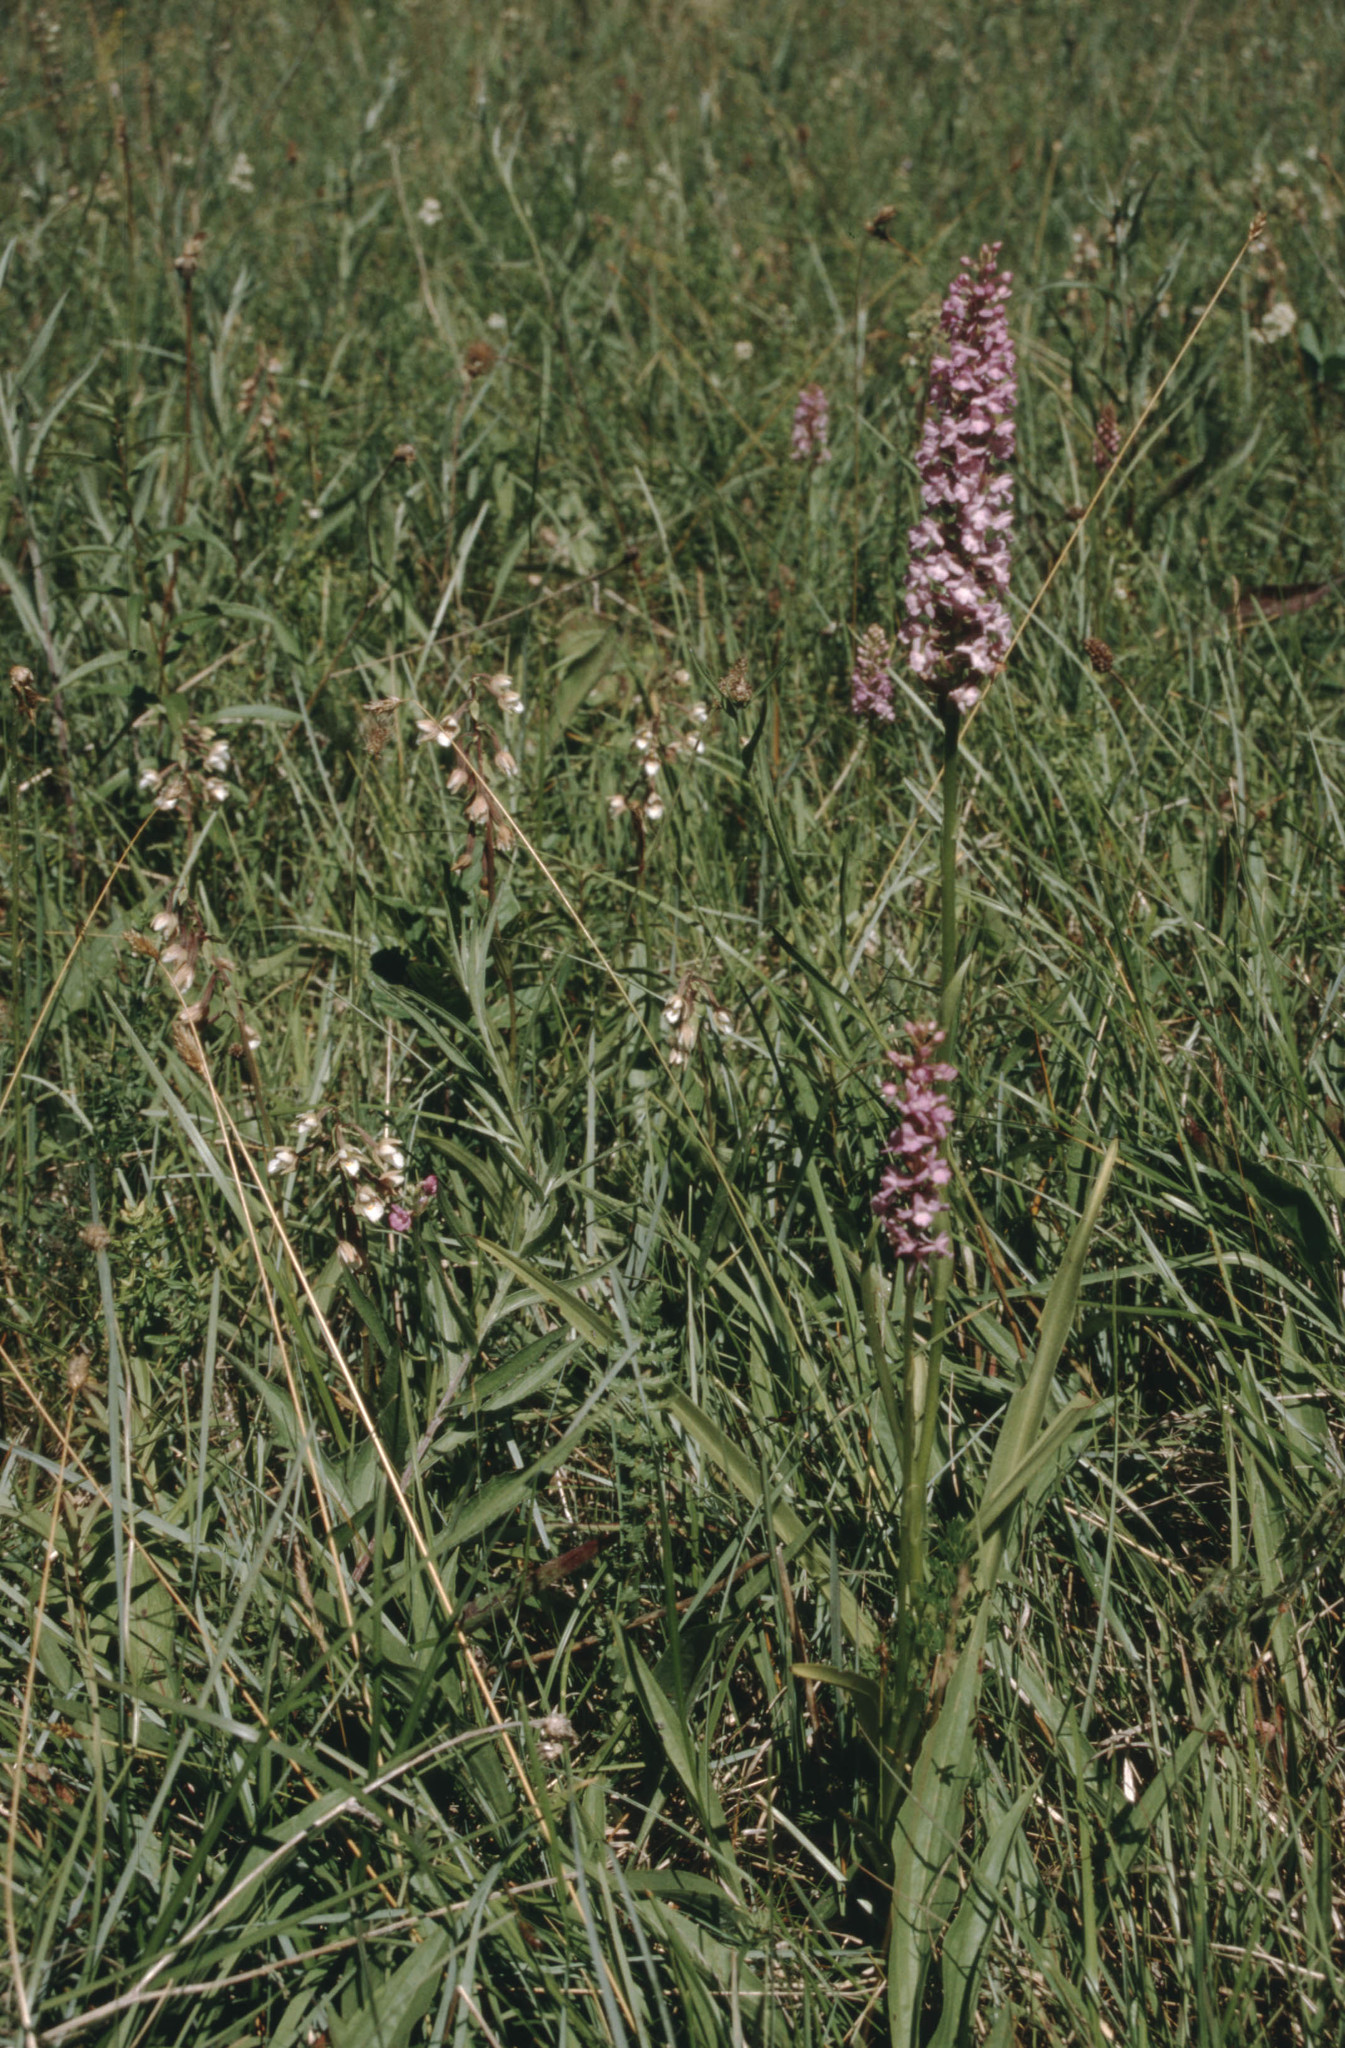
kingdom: Plantae
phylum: Tracheophyta
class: Liliopsida
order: Asparagales
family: Orchidaceae
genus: Gymnadenia
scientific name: Gymnadenia conopsea
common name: Fragrant orchid
